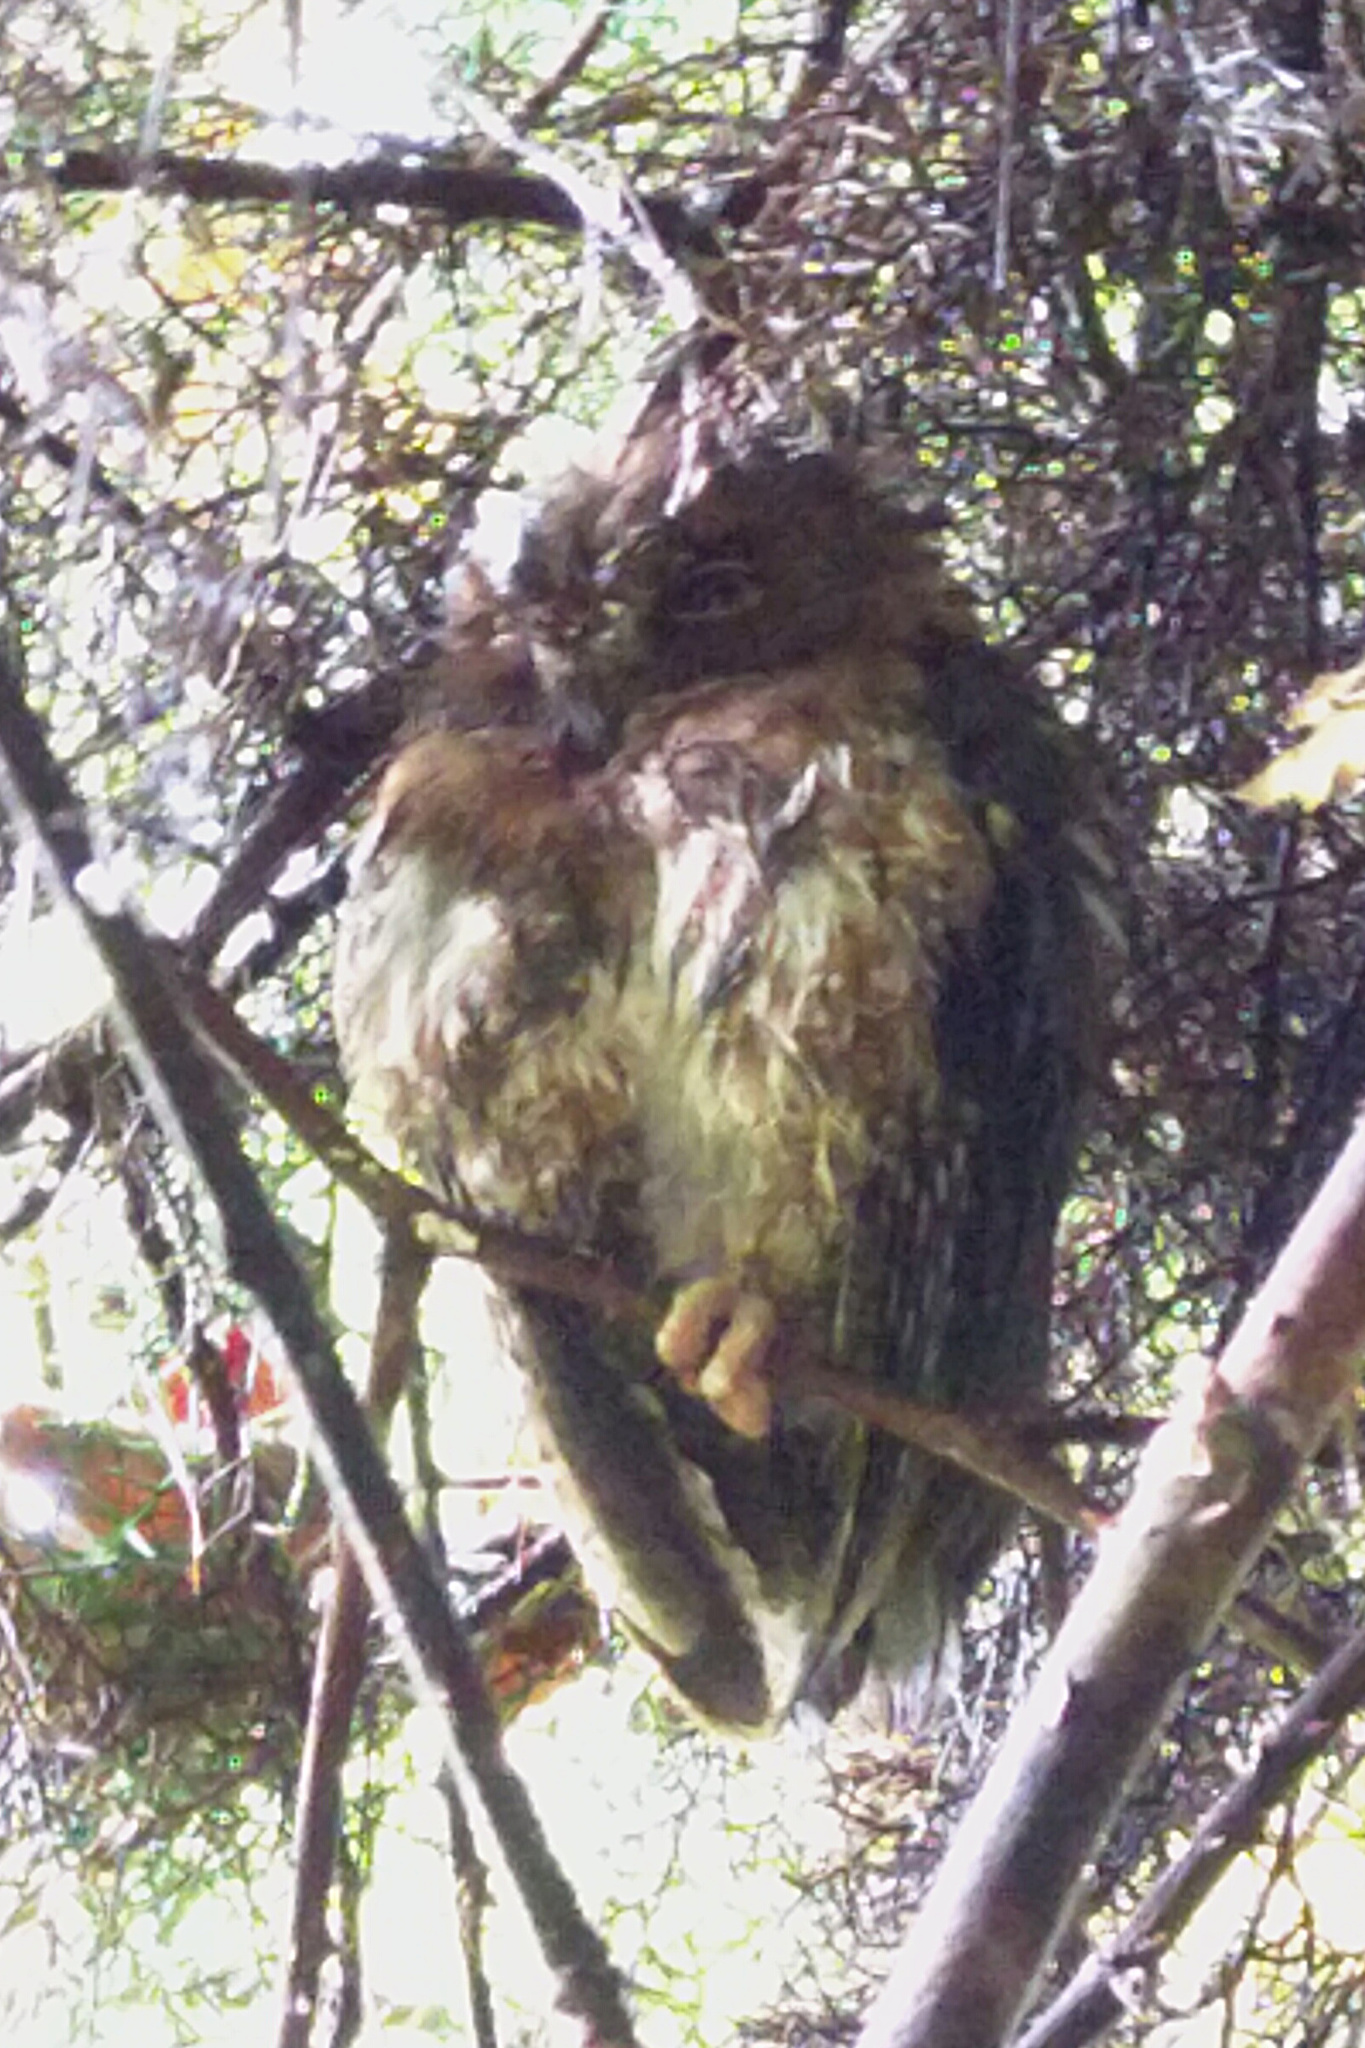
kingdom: Animalia
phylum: Chordata
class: Aves
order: Strigiformes
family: Strigidae
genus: Otus
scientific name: Otus rutilus
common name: Rainforest scops owl
